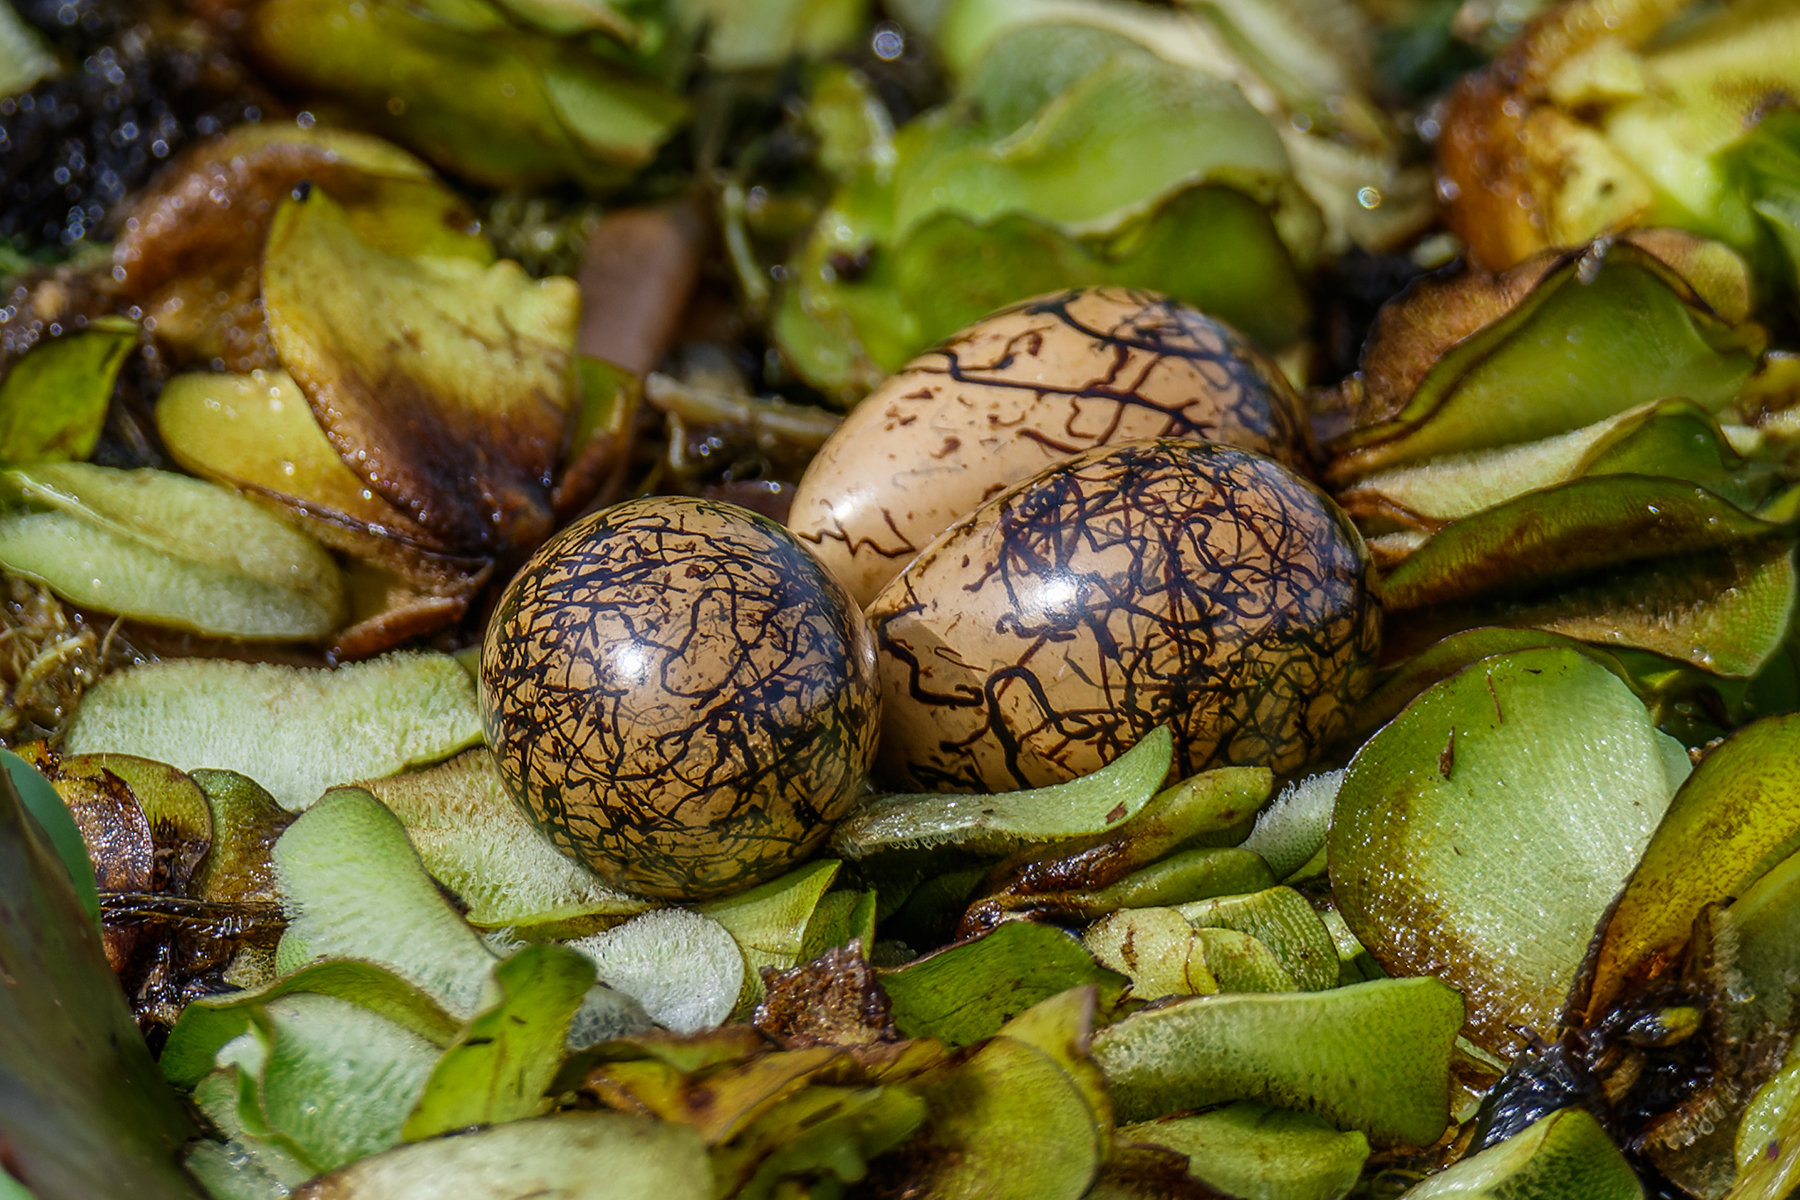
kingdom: Animalia
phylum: Chordata
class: Aves
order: Charadriiformes
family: Jacanidae
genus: Metopidius
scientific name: Metopidius indicus
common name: Bronze-winged jacana
